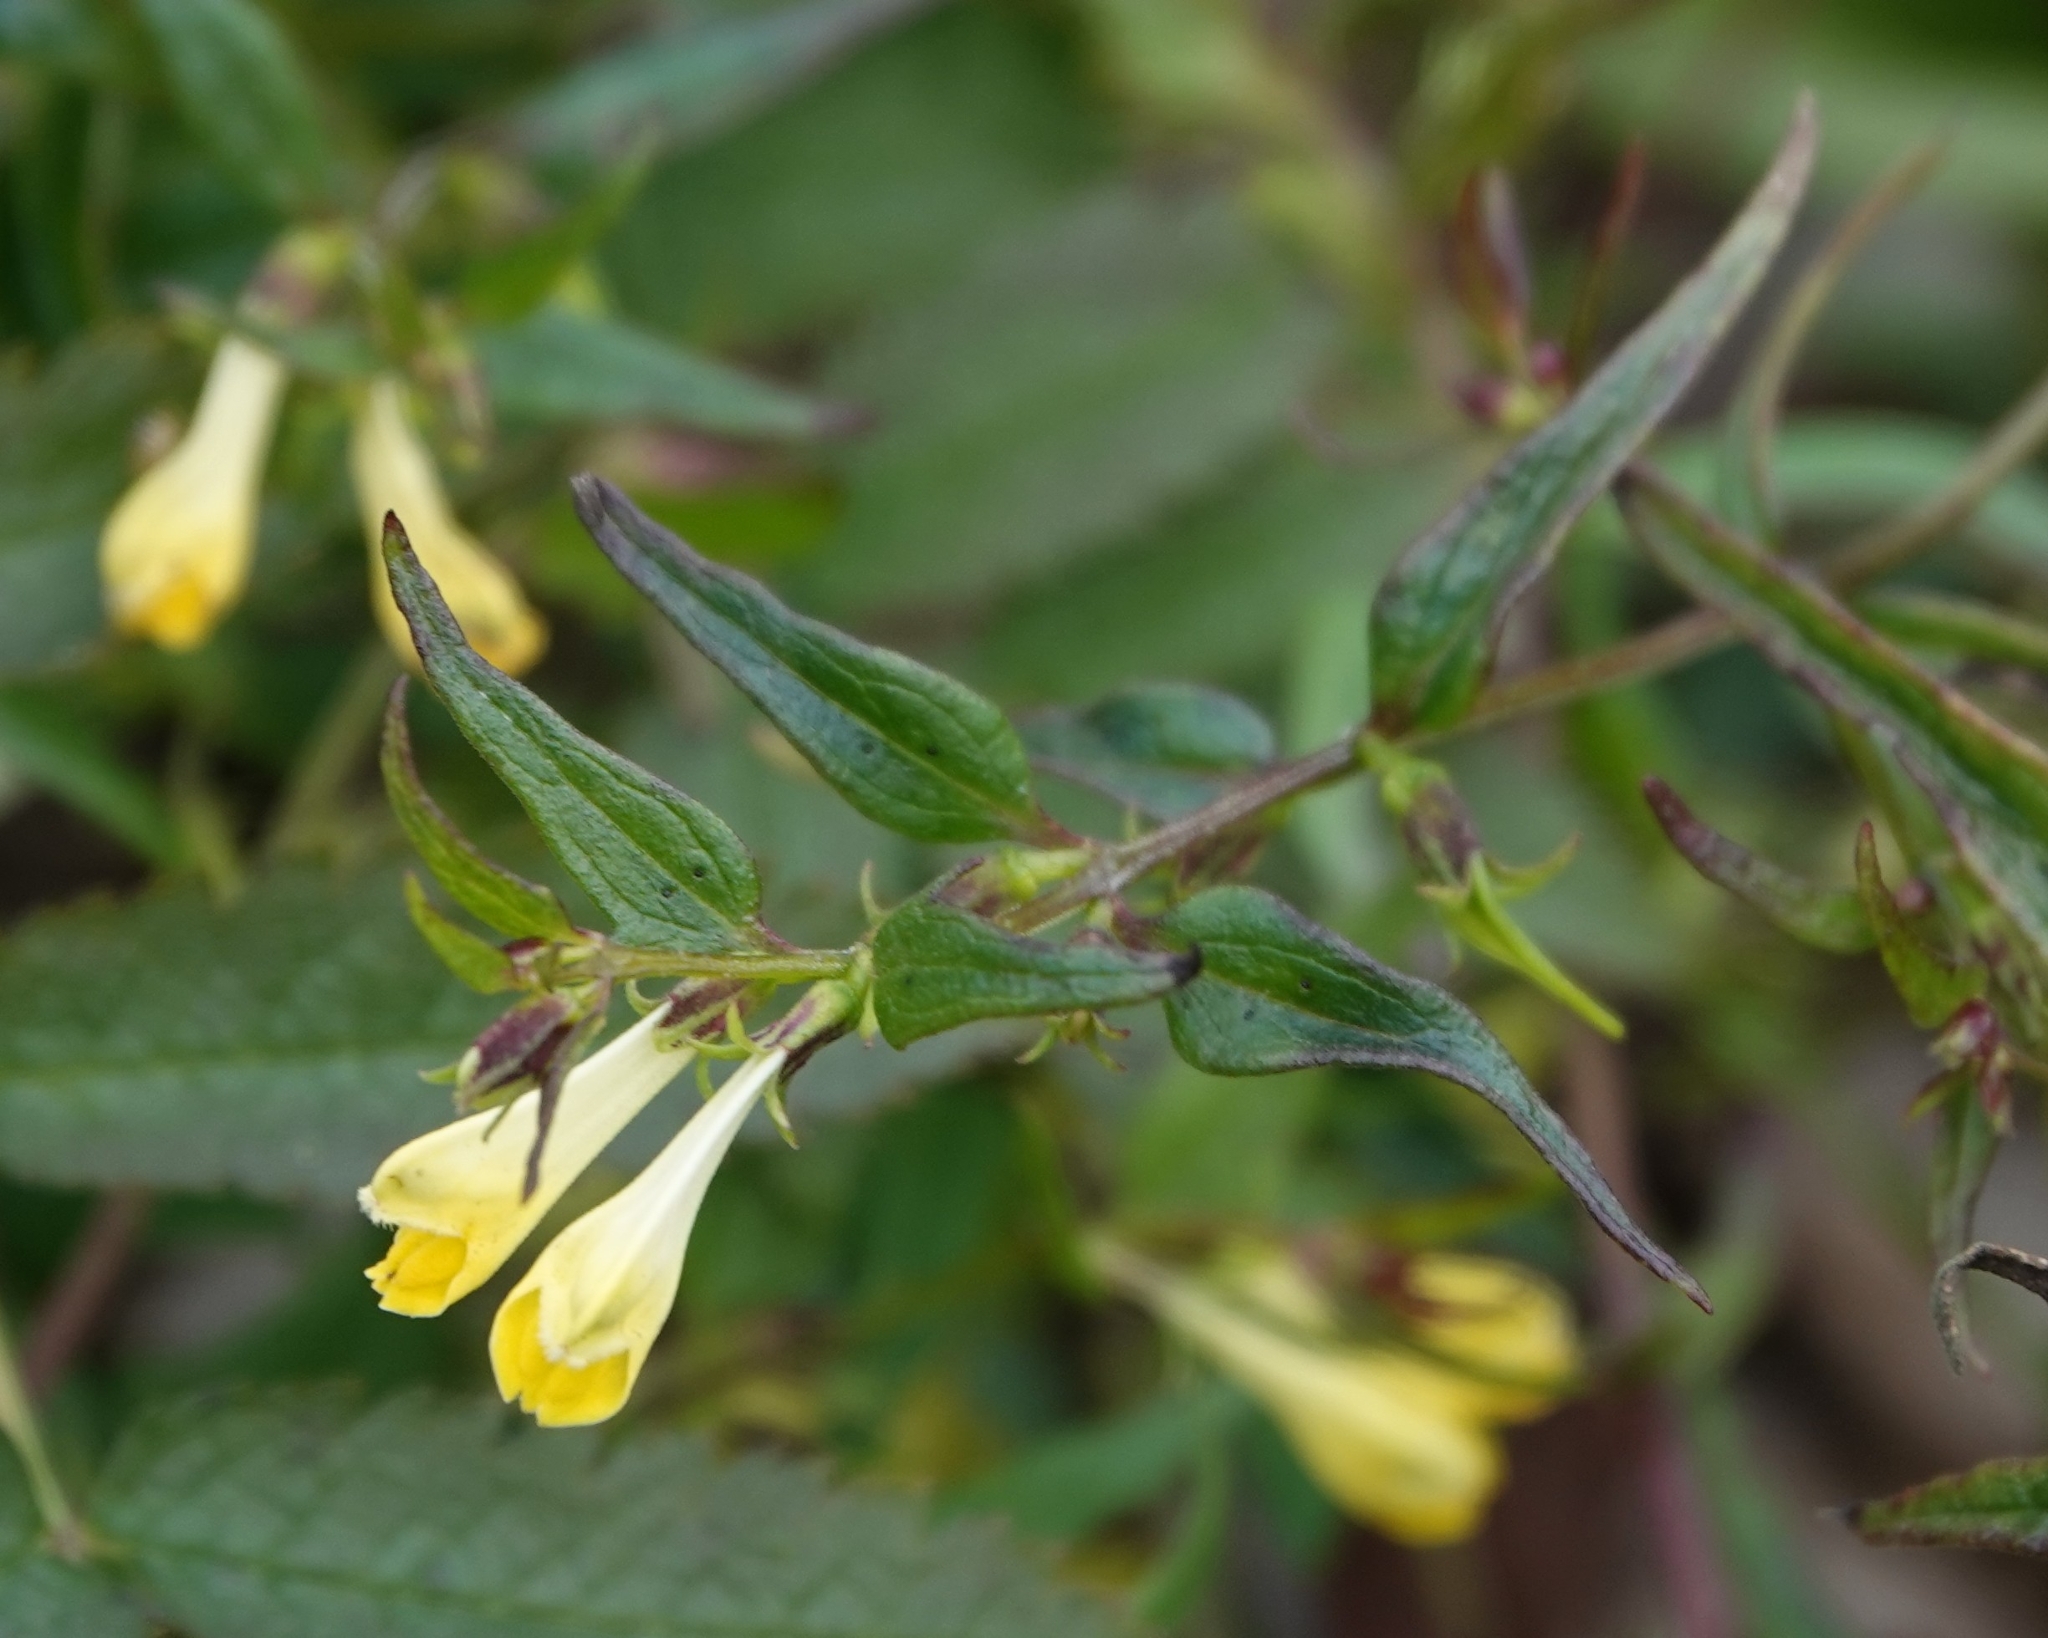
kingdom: Plantae
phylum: Tracheophyta
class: Magnoliopsida
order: Lamiales
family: Orobanchaceae
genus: Melampyrum
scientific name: Melampyrum pratense
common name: Common cow-wheat
